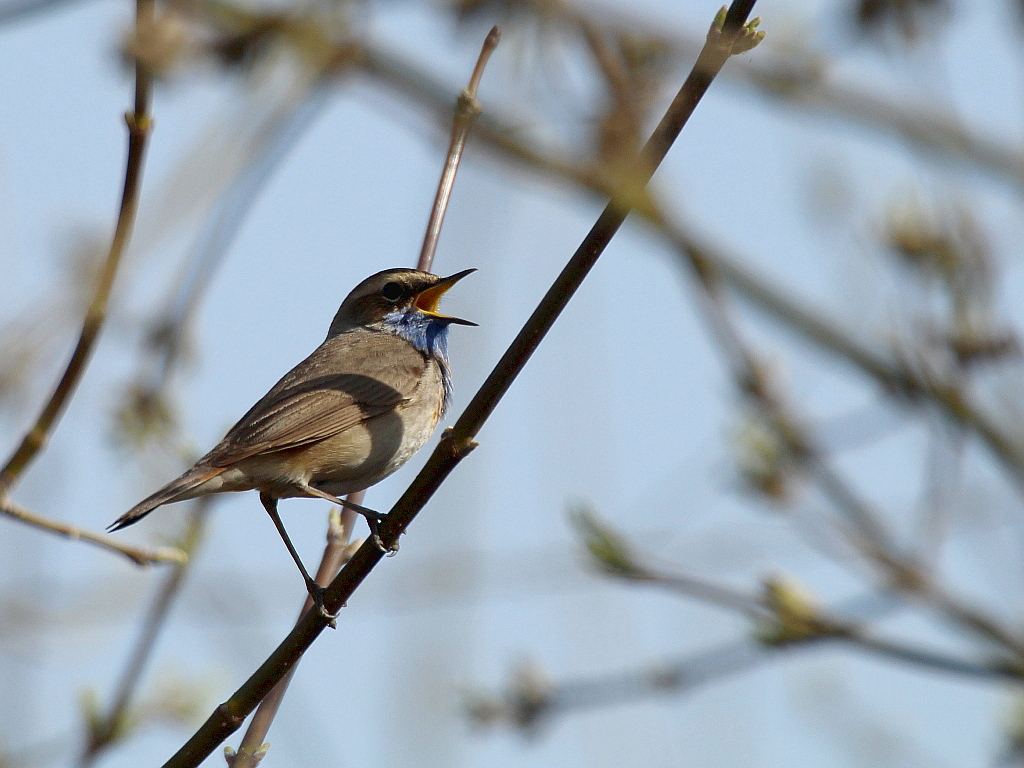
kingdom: Animalia
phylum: Chordata
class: Aves
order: Passeriformes
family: Muscicapidae
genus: Luscinia
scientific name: Luscinia svecica
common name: Bluethroat
